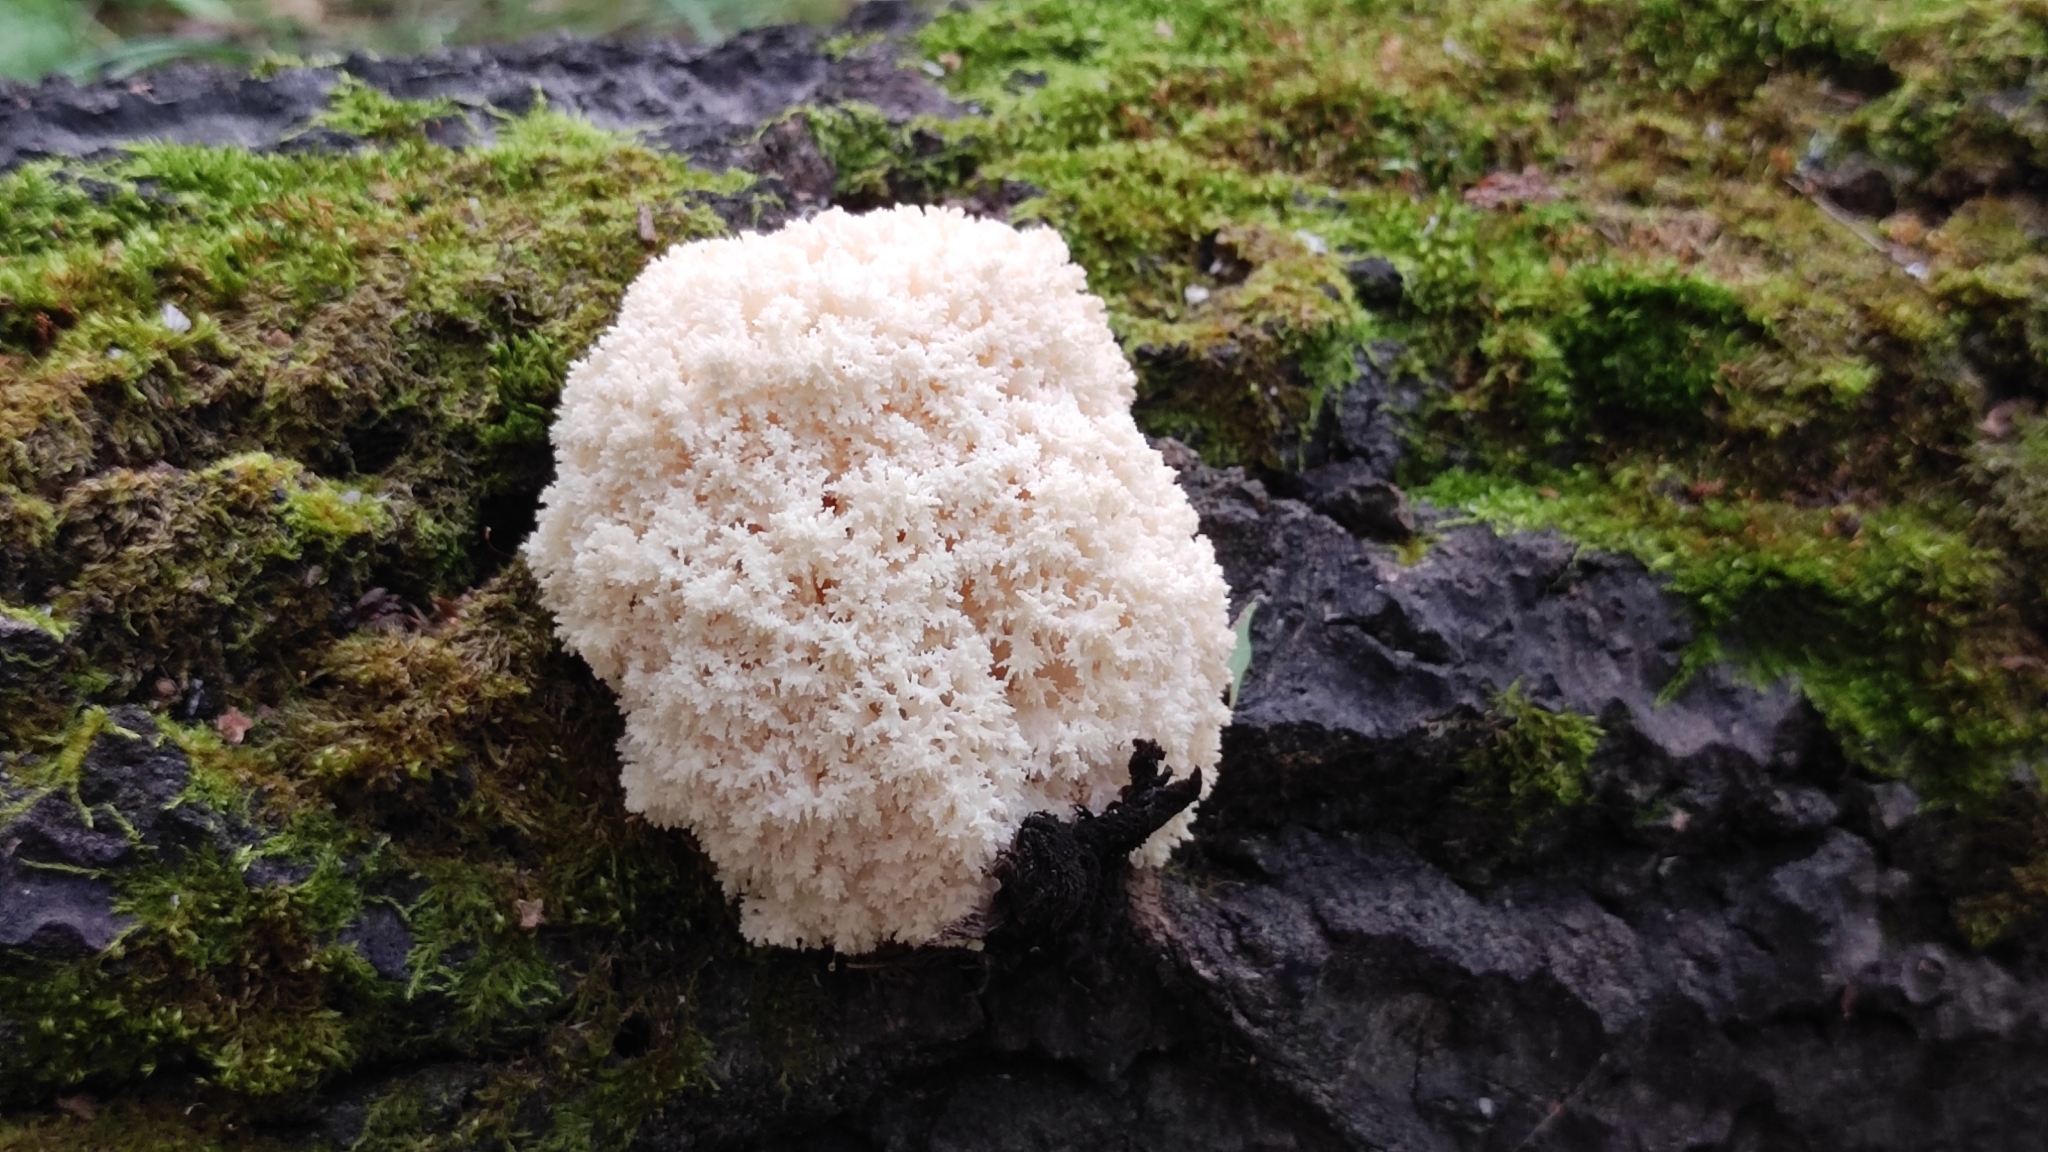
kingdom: Fungi
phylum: Basidiomycota
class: Agaricomycetes
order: Russulales
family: Hericiaceae
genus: Hericium
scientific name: Hericium coralloides
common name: Coral tooth
